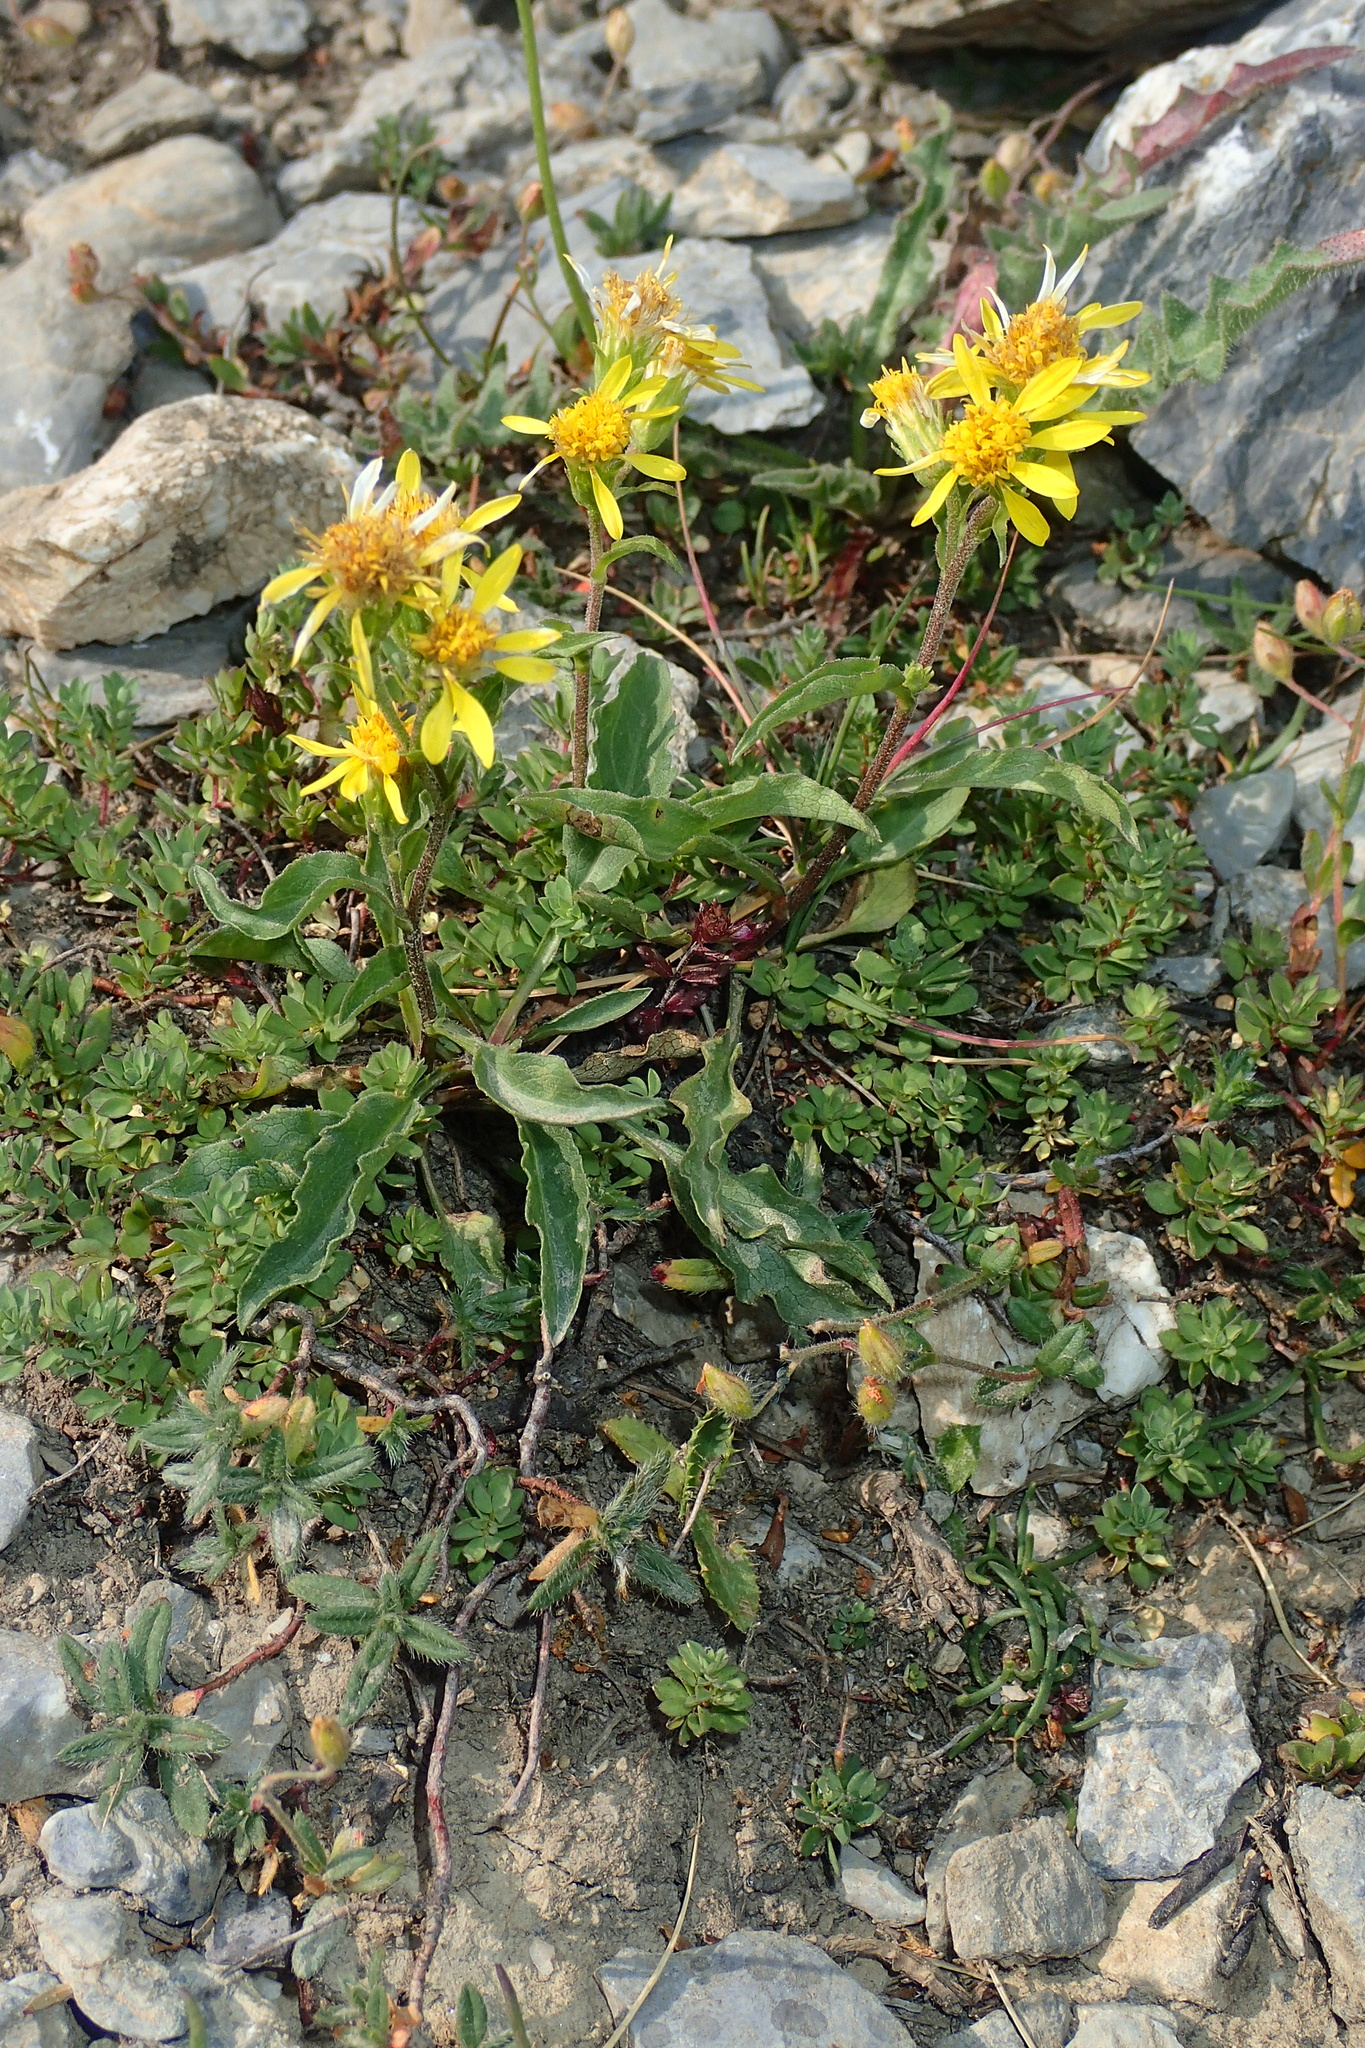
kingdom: Plantae
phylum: Tracheophyta
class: Magnoliopsida
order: Asterales
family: Asteraceae
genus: Solidago
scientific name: Solidago virgaurea
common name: Goldenrod
